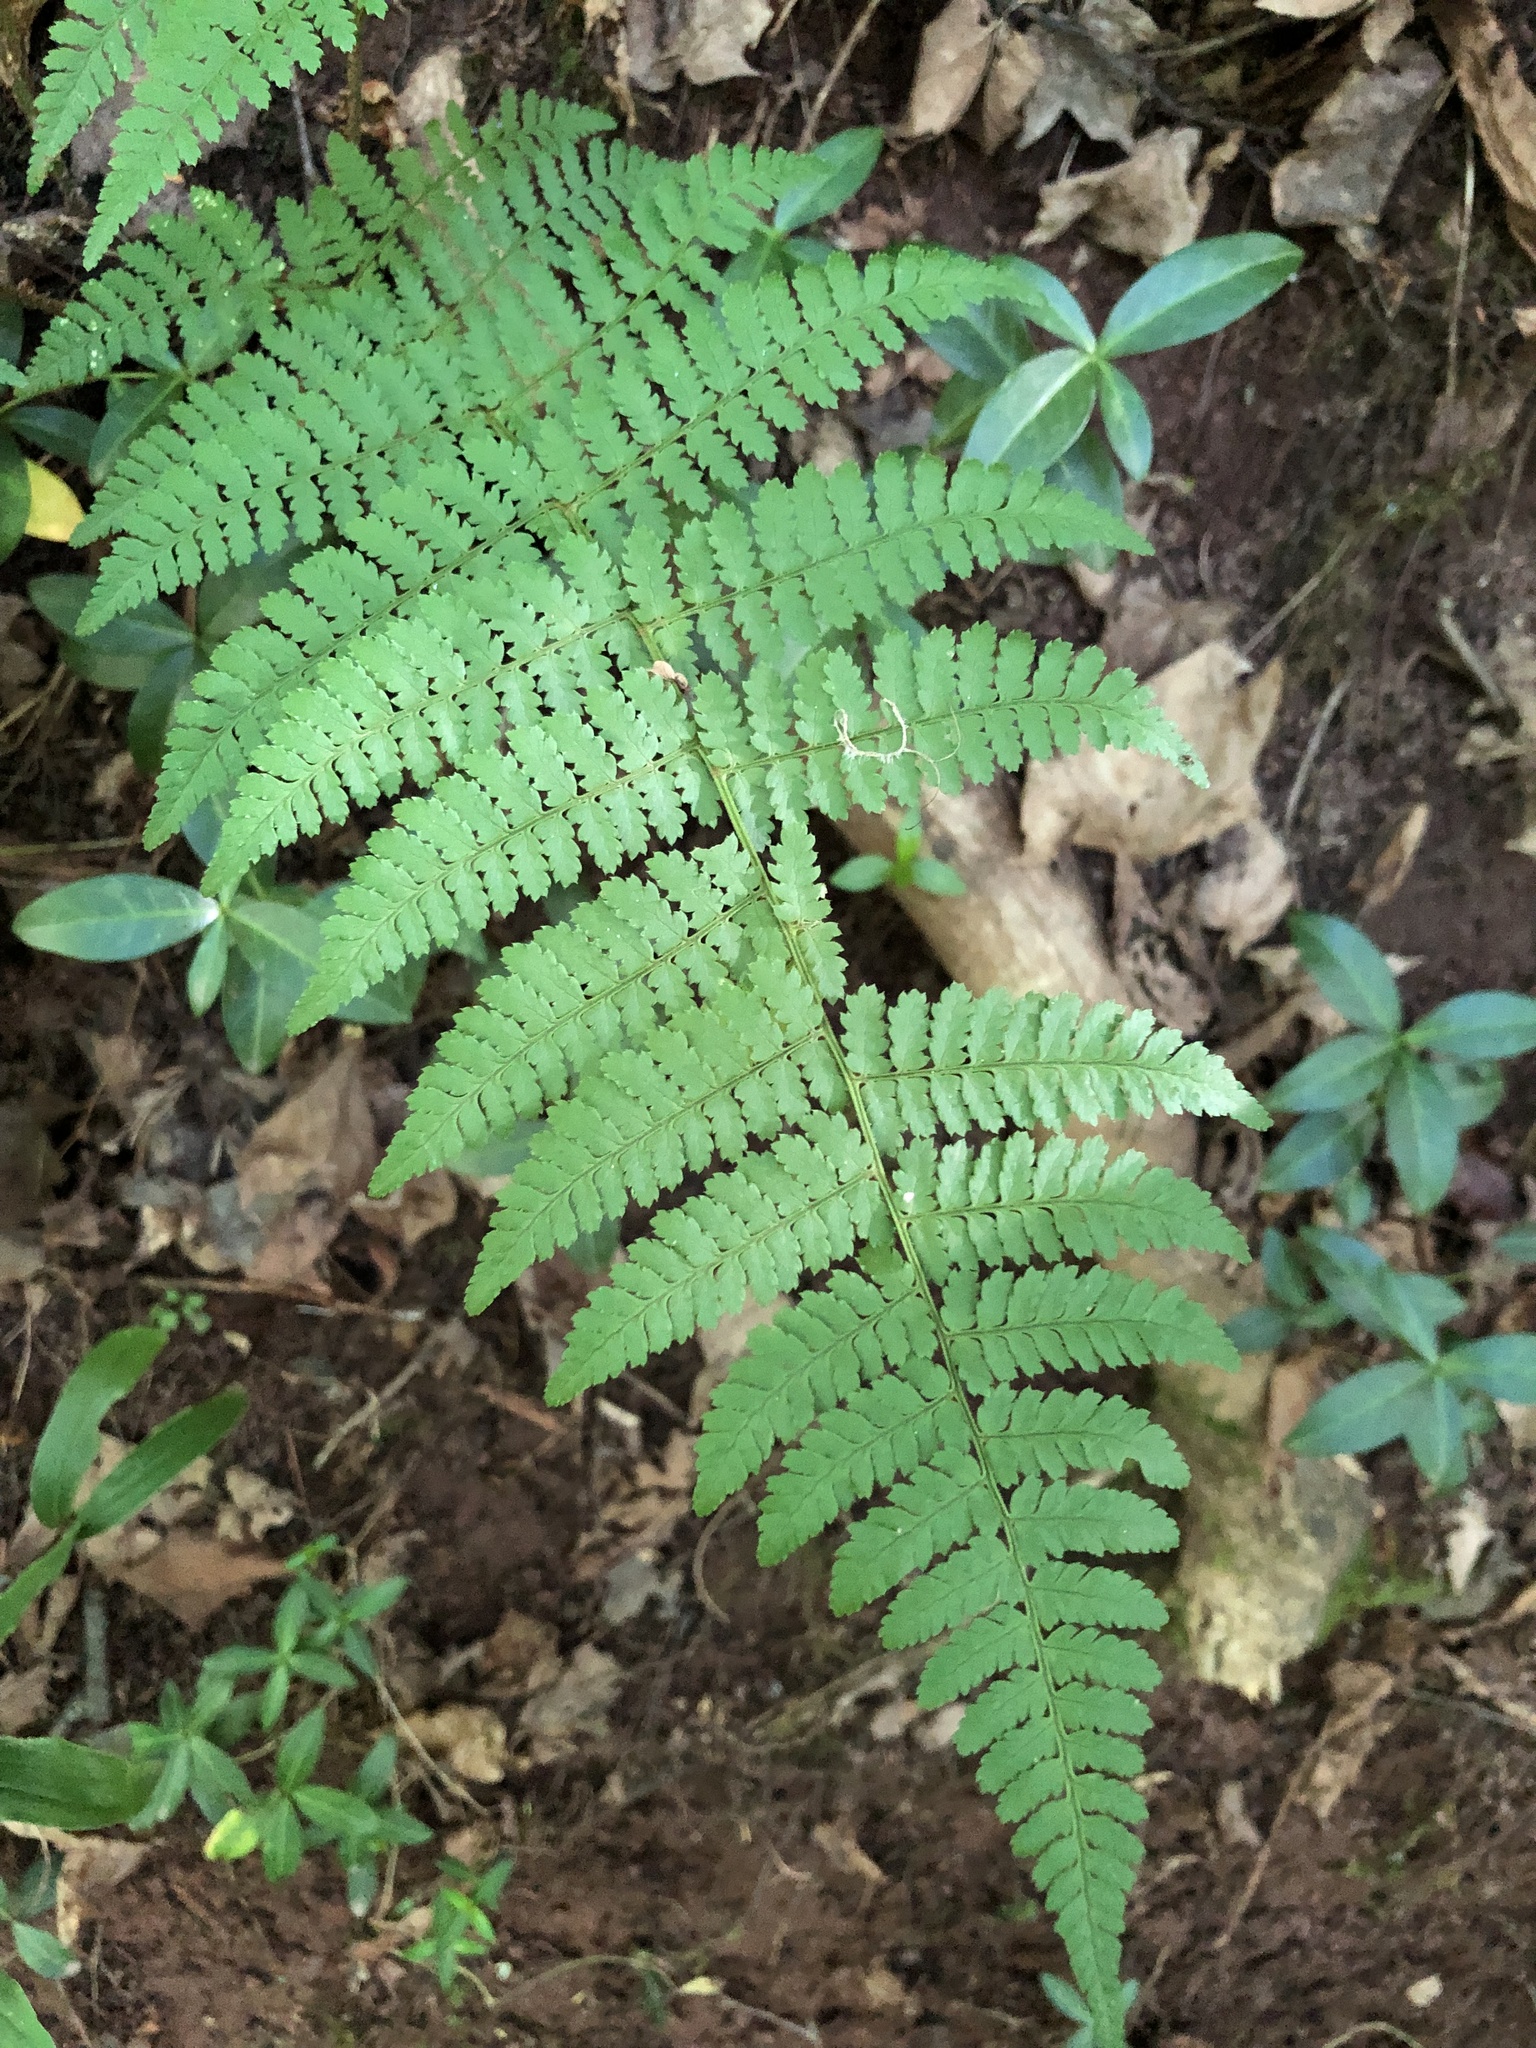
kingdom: Plantae
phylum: Tracheophyta
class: Polypodiopsida
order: Polypodiales
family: Dryopteridaceae
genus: Dryopteris
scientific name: Dryopteris intermedia
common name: Evergreen wood fern
